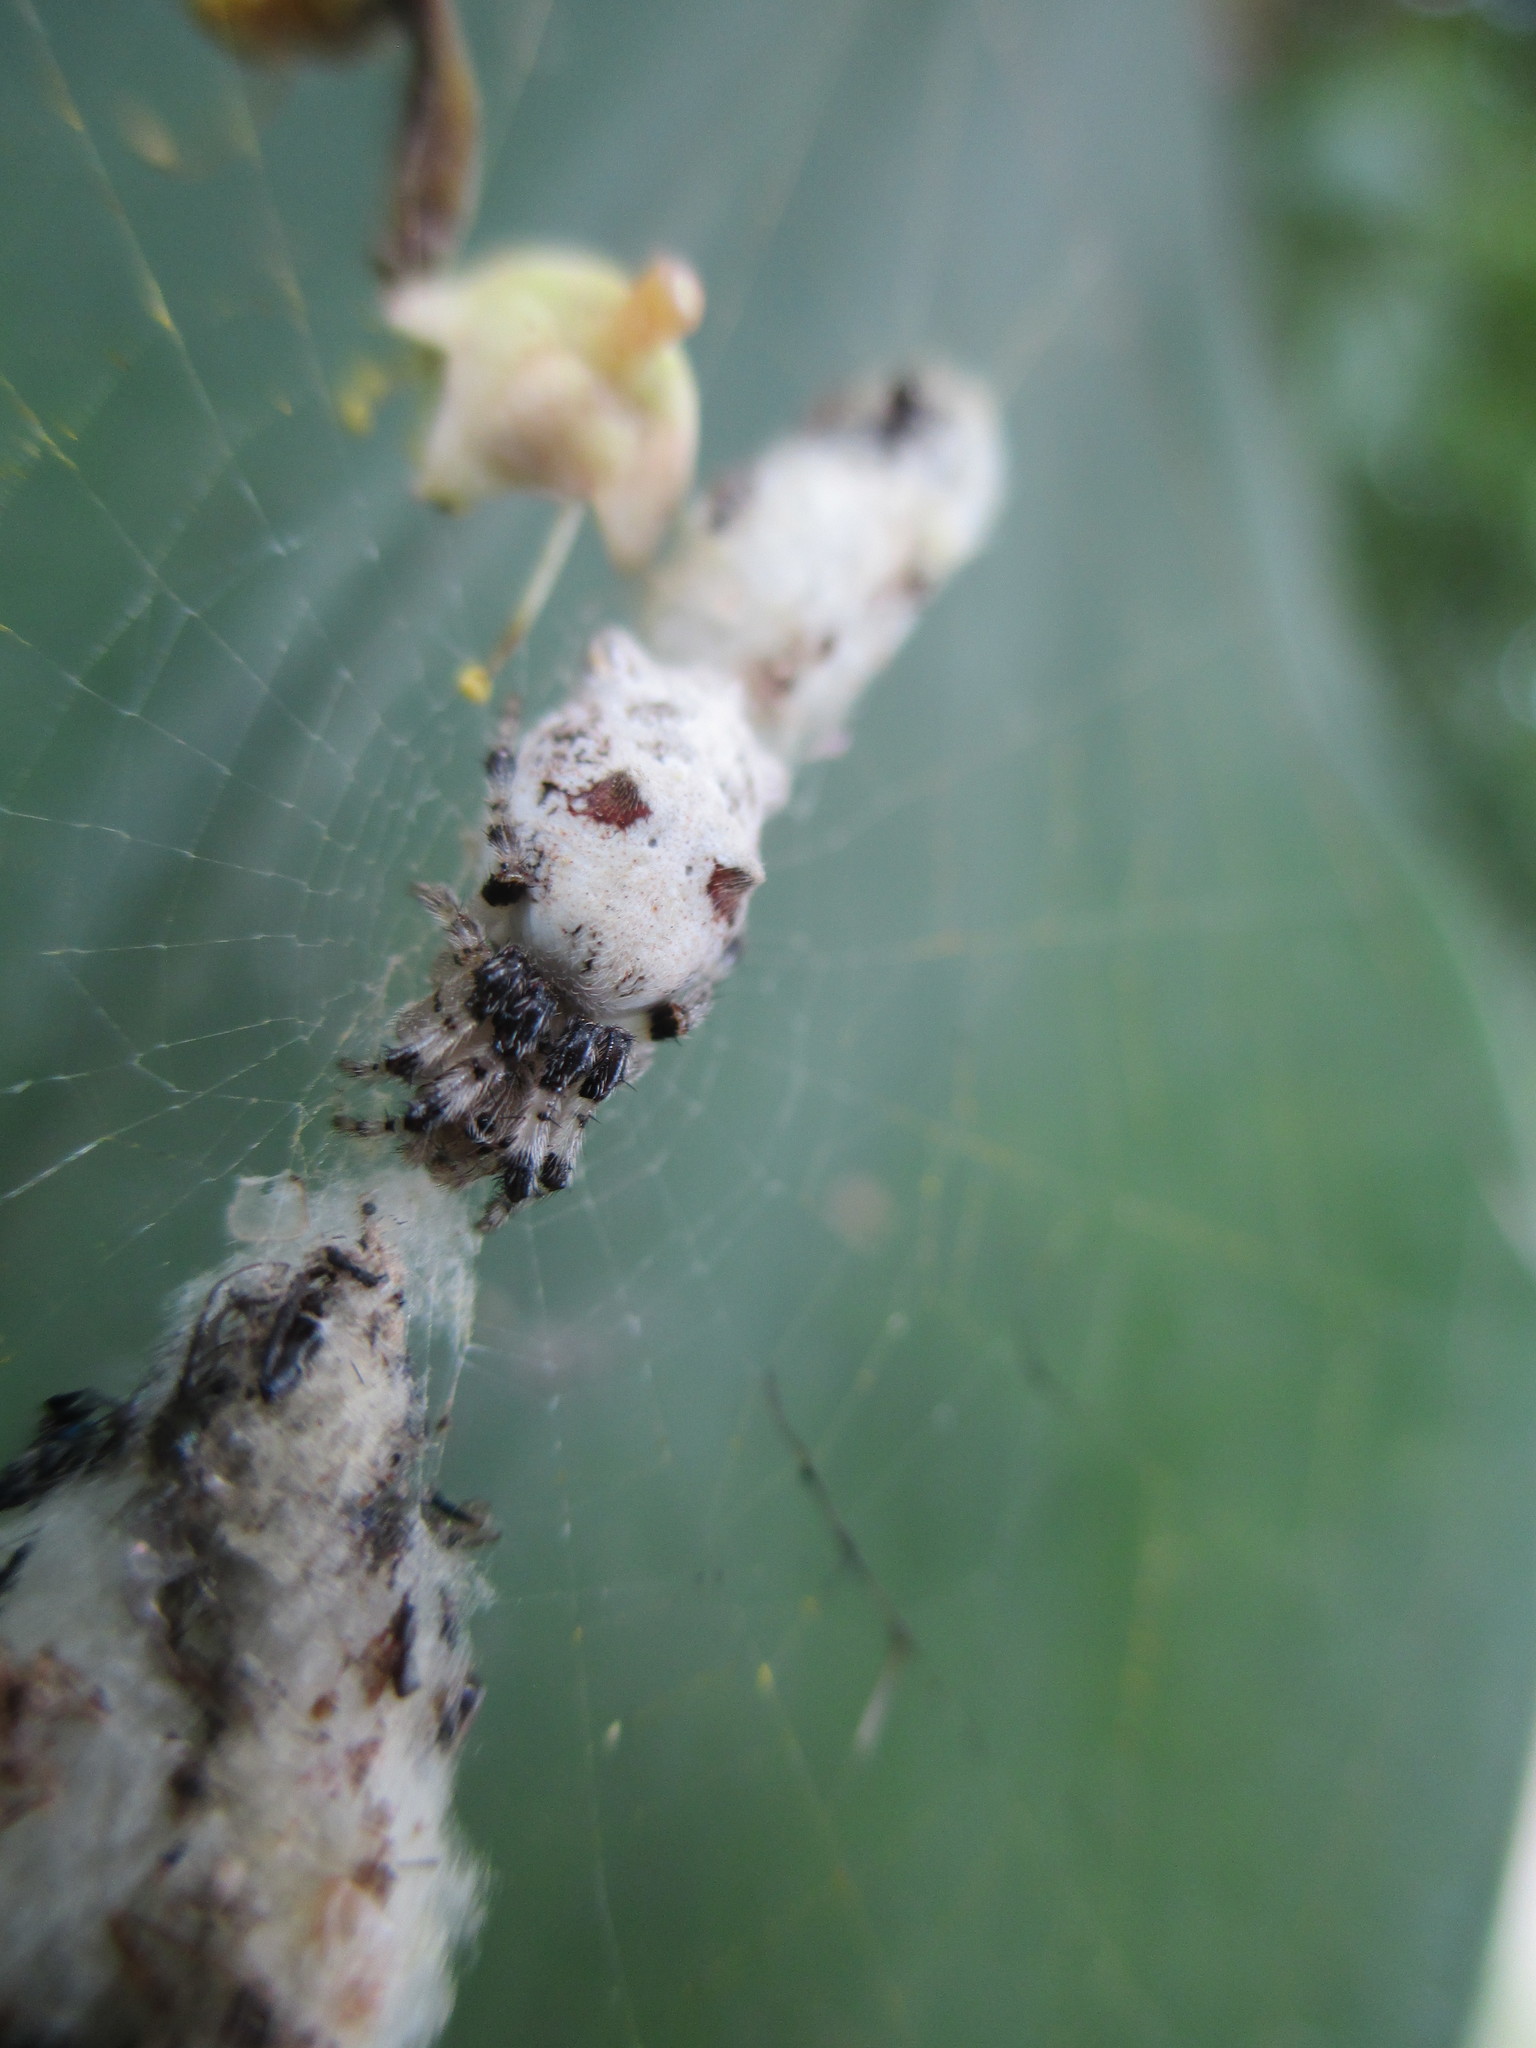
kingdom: Animalia
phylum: Arthropoda
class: Arachnida
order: Araneae
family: Araneidae
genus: Cyclosa
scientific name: Cyclosa diversa
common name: Orb weavers
